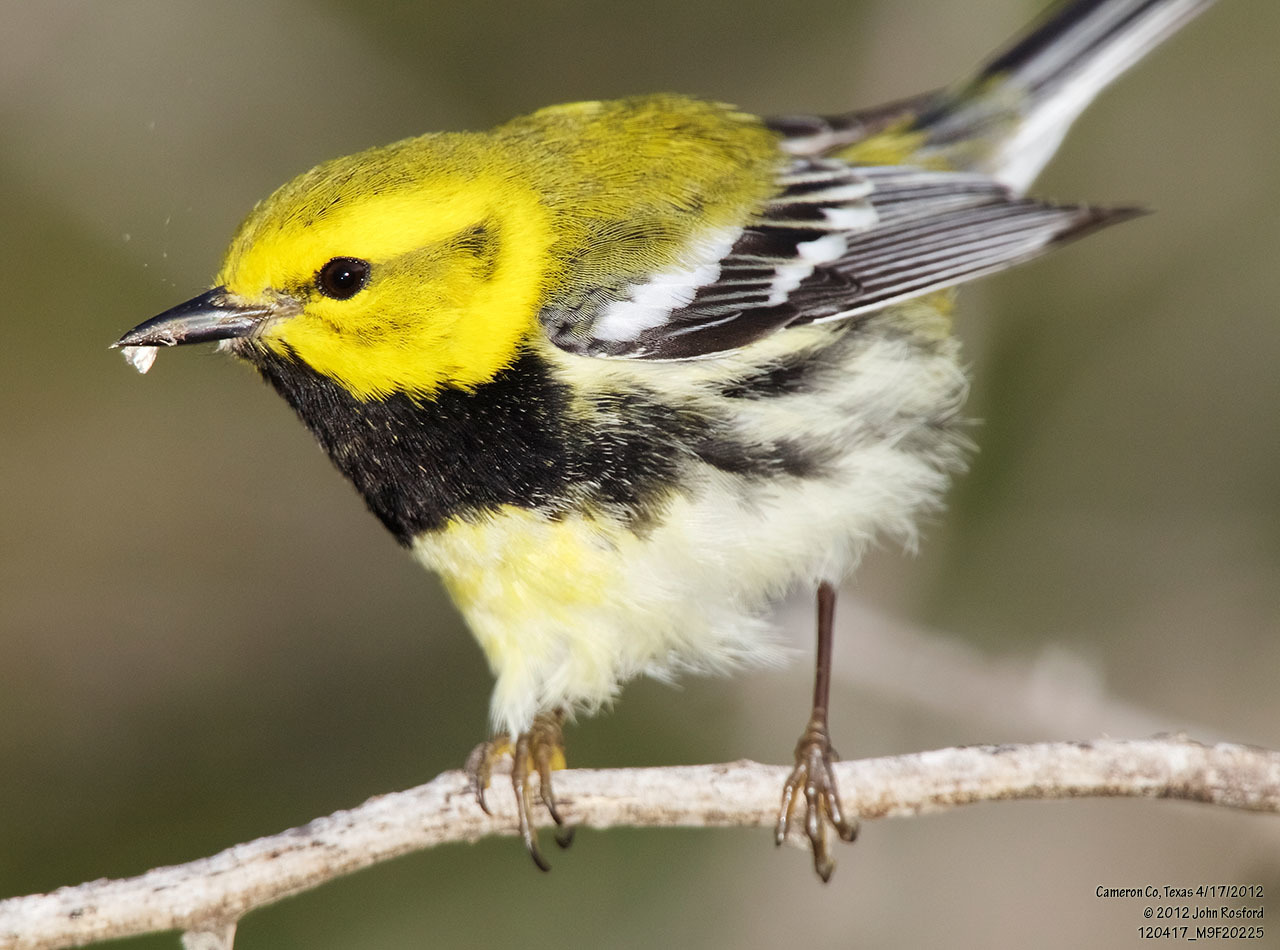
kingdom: Animalia
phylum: Chordata
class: Aves
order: Passeriformes
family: Parulidae
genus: Setophaga
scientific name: Setophaga virens
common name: Black-throated green warbler
